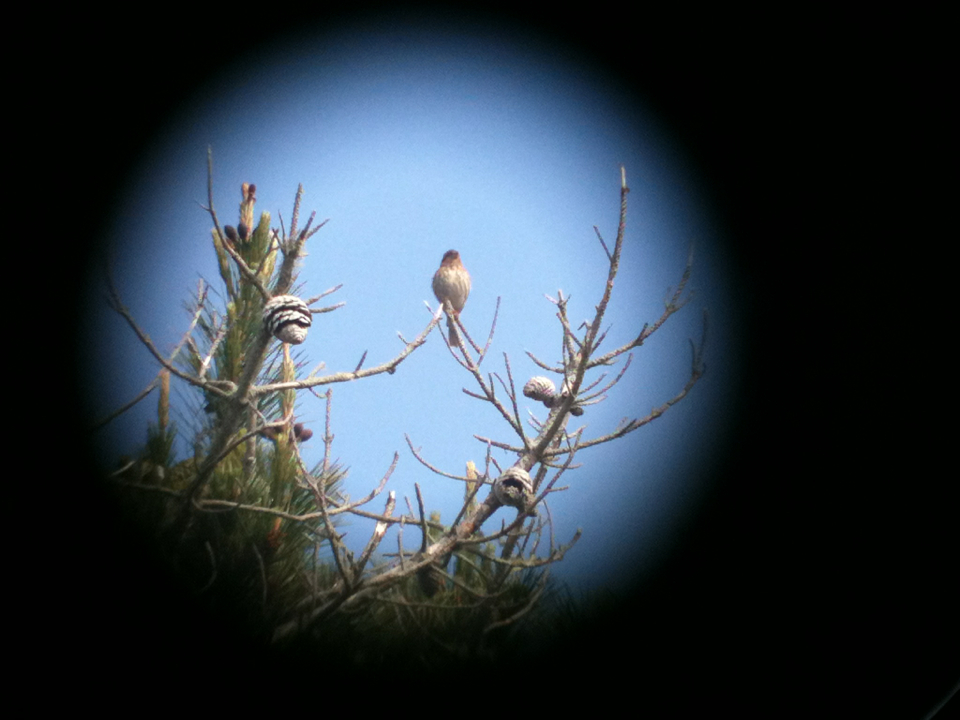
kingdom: Animalia
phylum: Chordata
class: Aves
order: Passeriformes
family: Fringillidae
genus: Haemorhous
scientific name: Haemorhous mexicanus
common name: House finch
